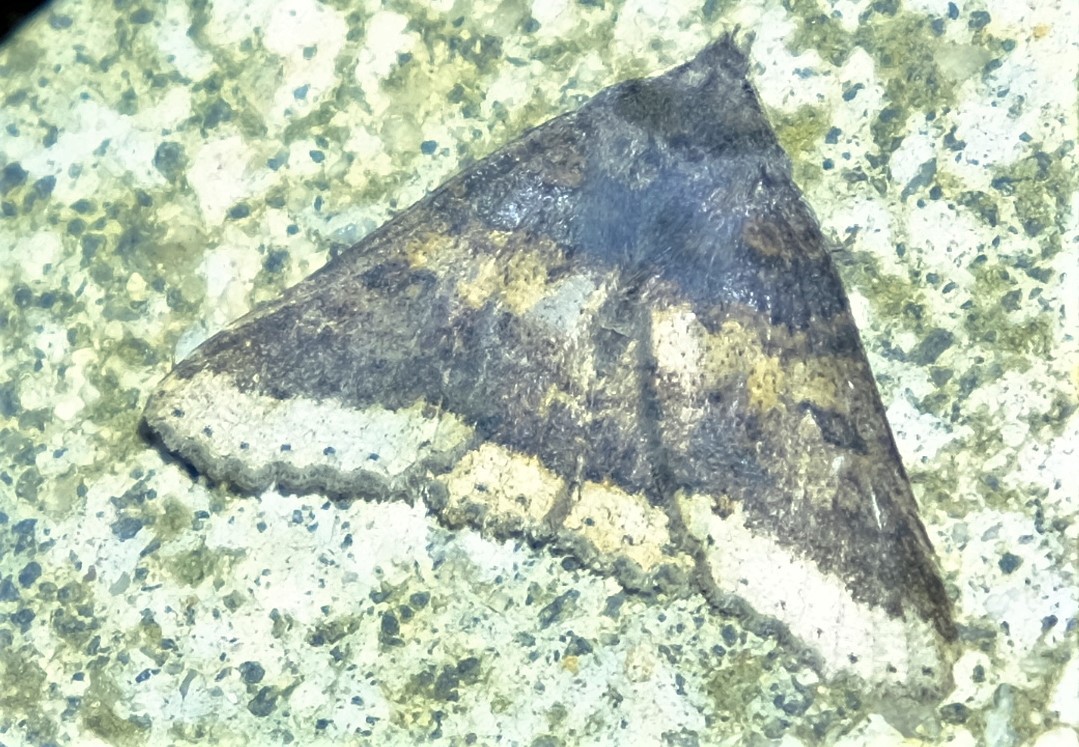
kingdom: Animalia
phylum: Arthropoda
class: Insecta
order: Lepidoptera
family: Erebidae
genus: Praxis
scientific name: Praxis pandesma
